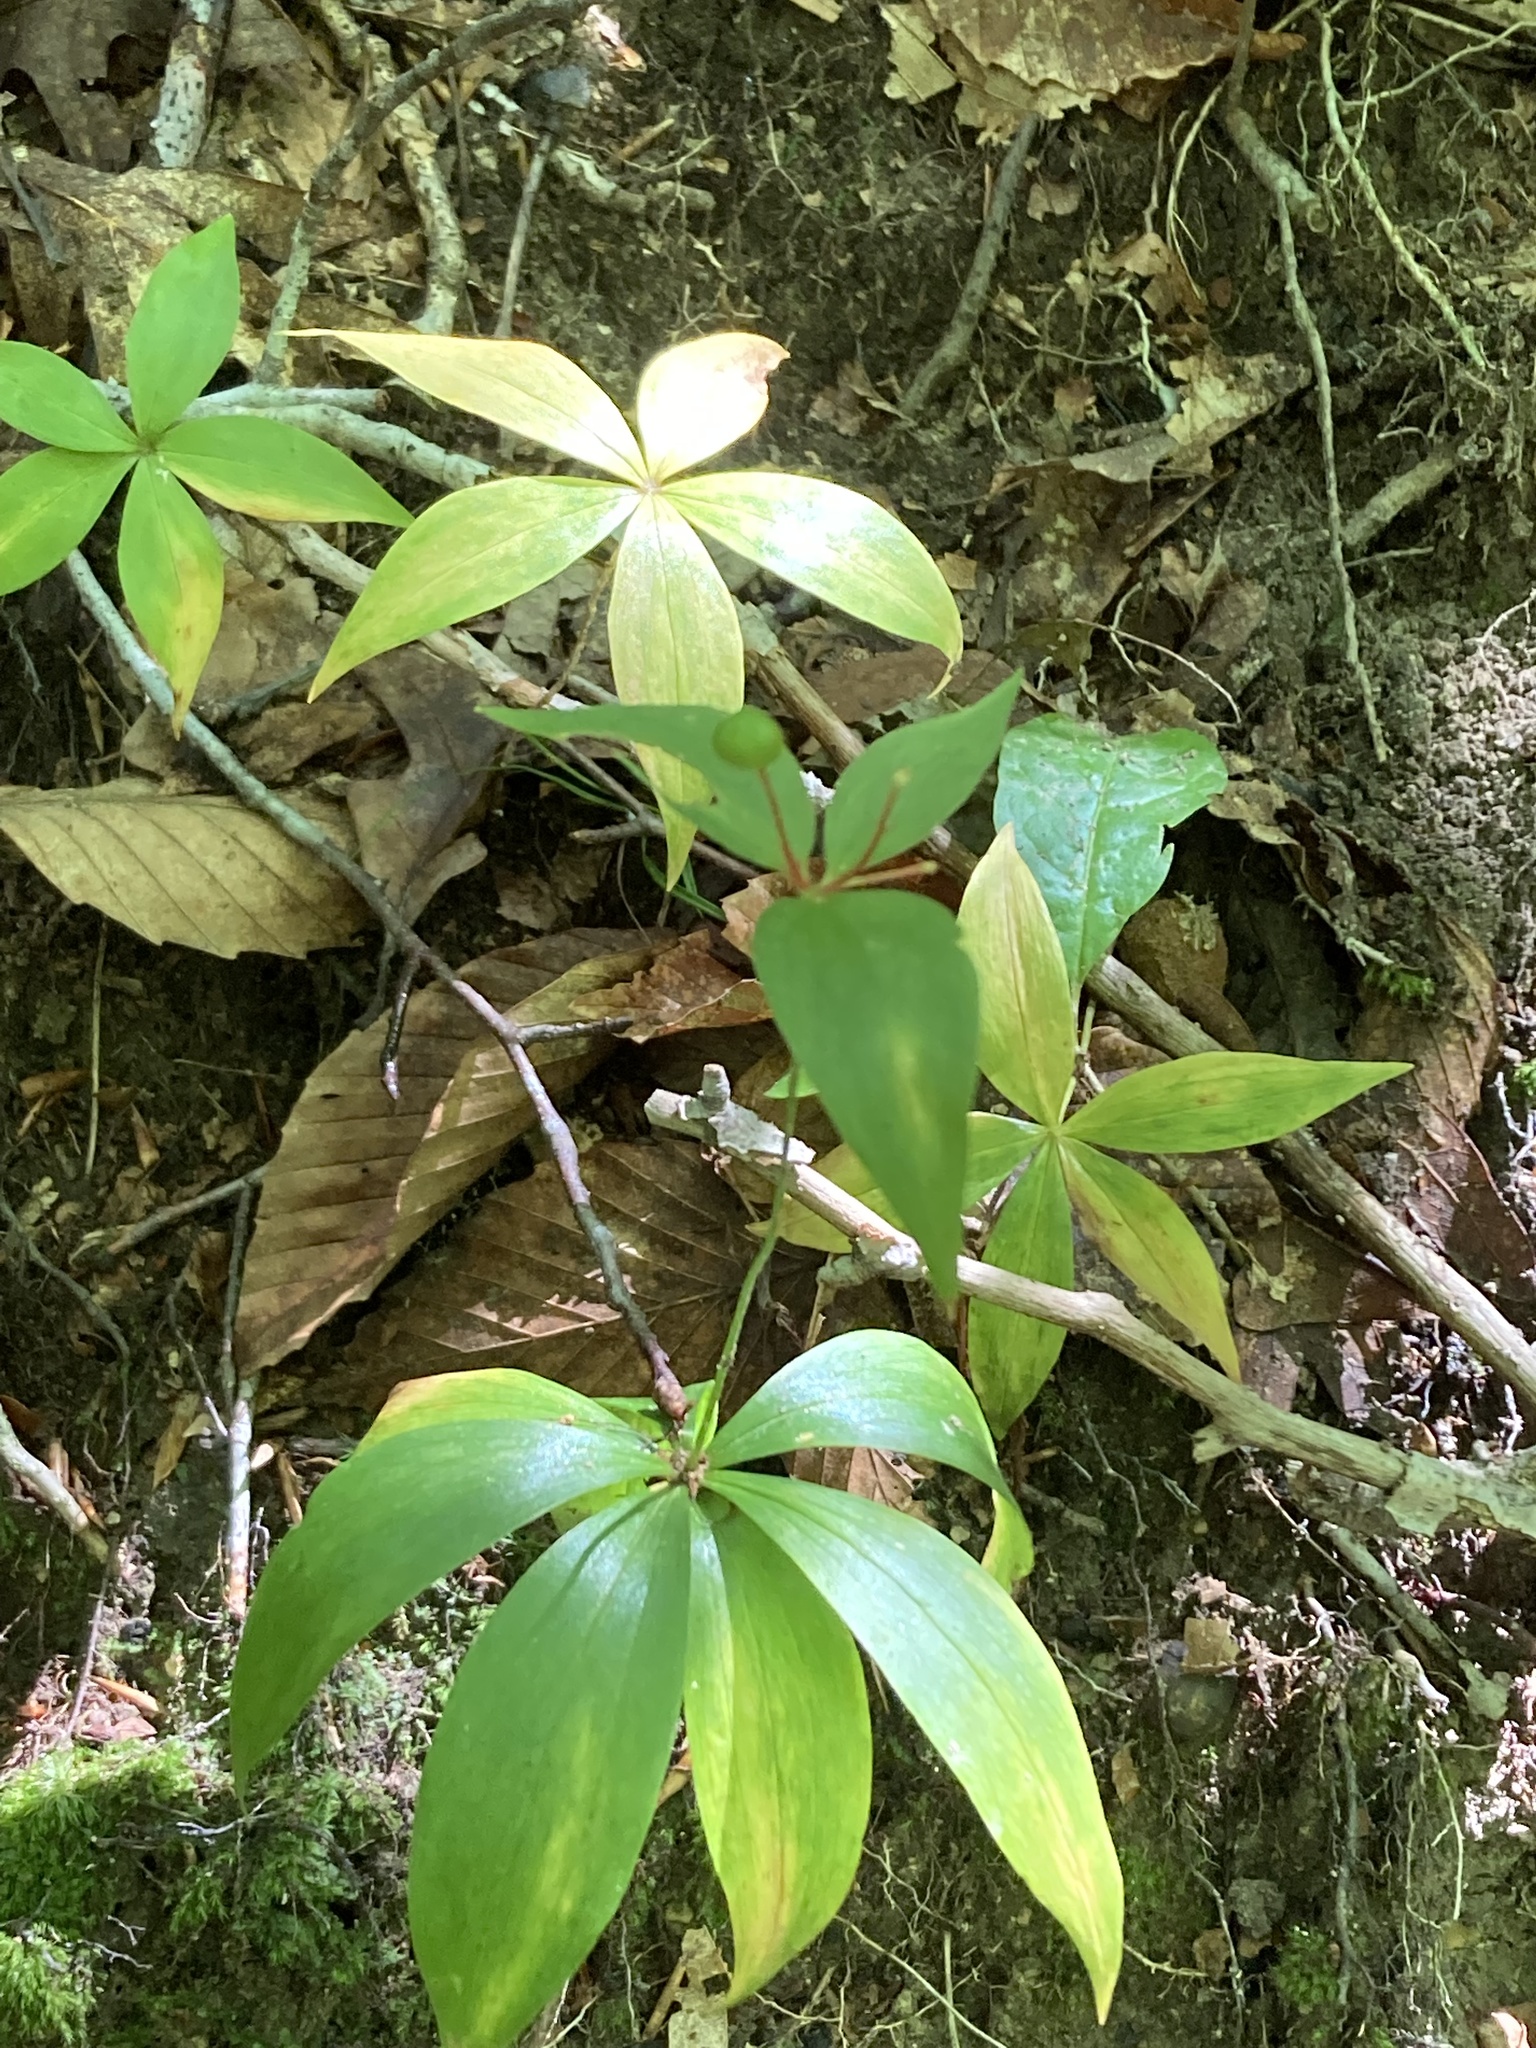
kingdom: Plantae
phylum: Tracheophyta
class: Liliopsida
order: Liliales
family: Liliaceae
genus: Medeola
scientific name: Medeola virginiana
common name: Indian cucumber-root
